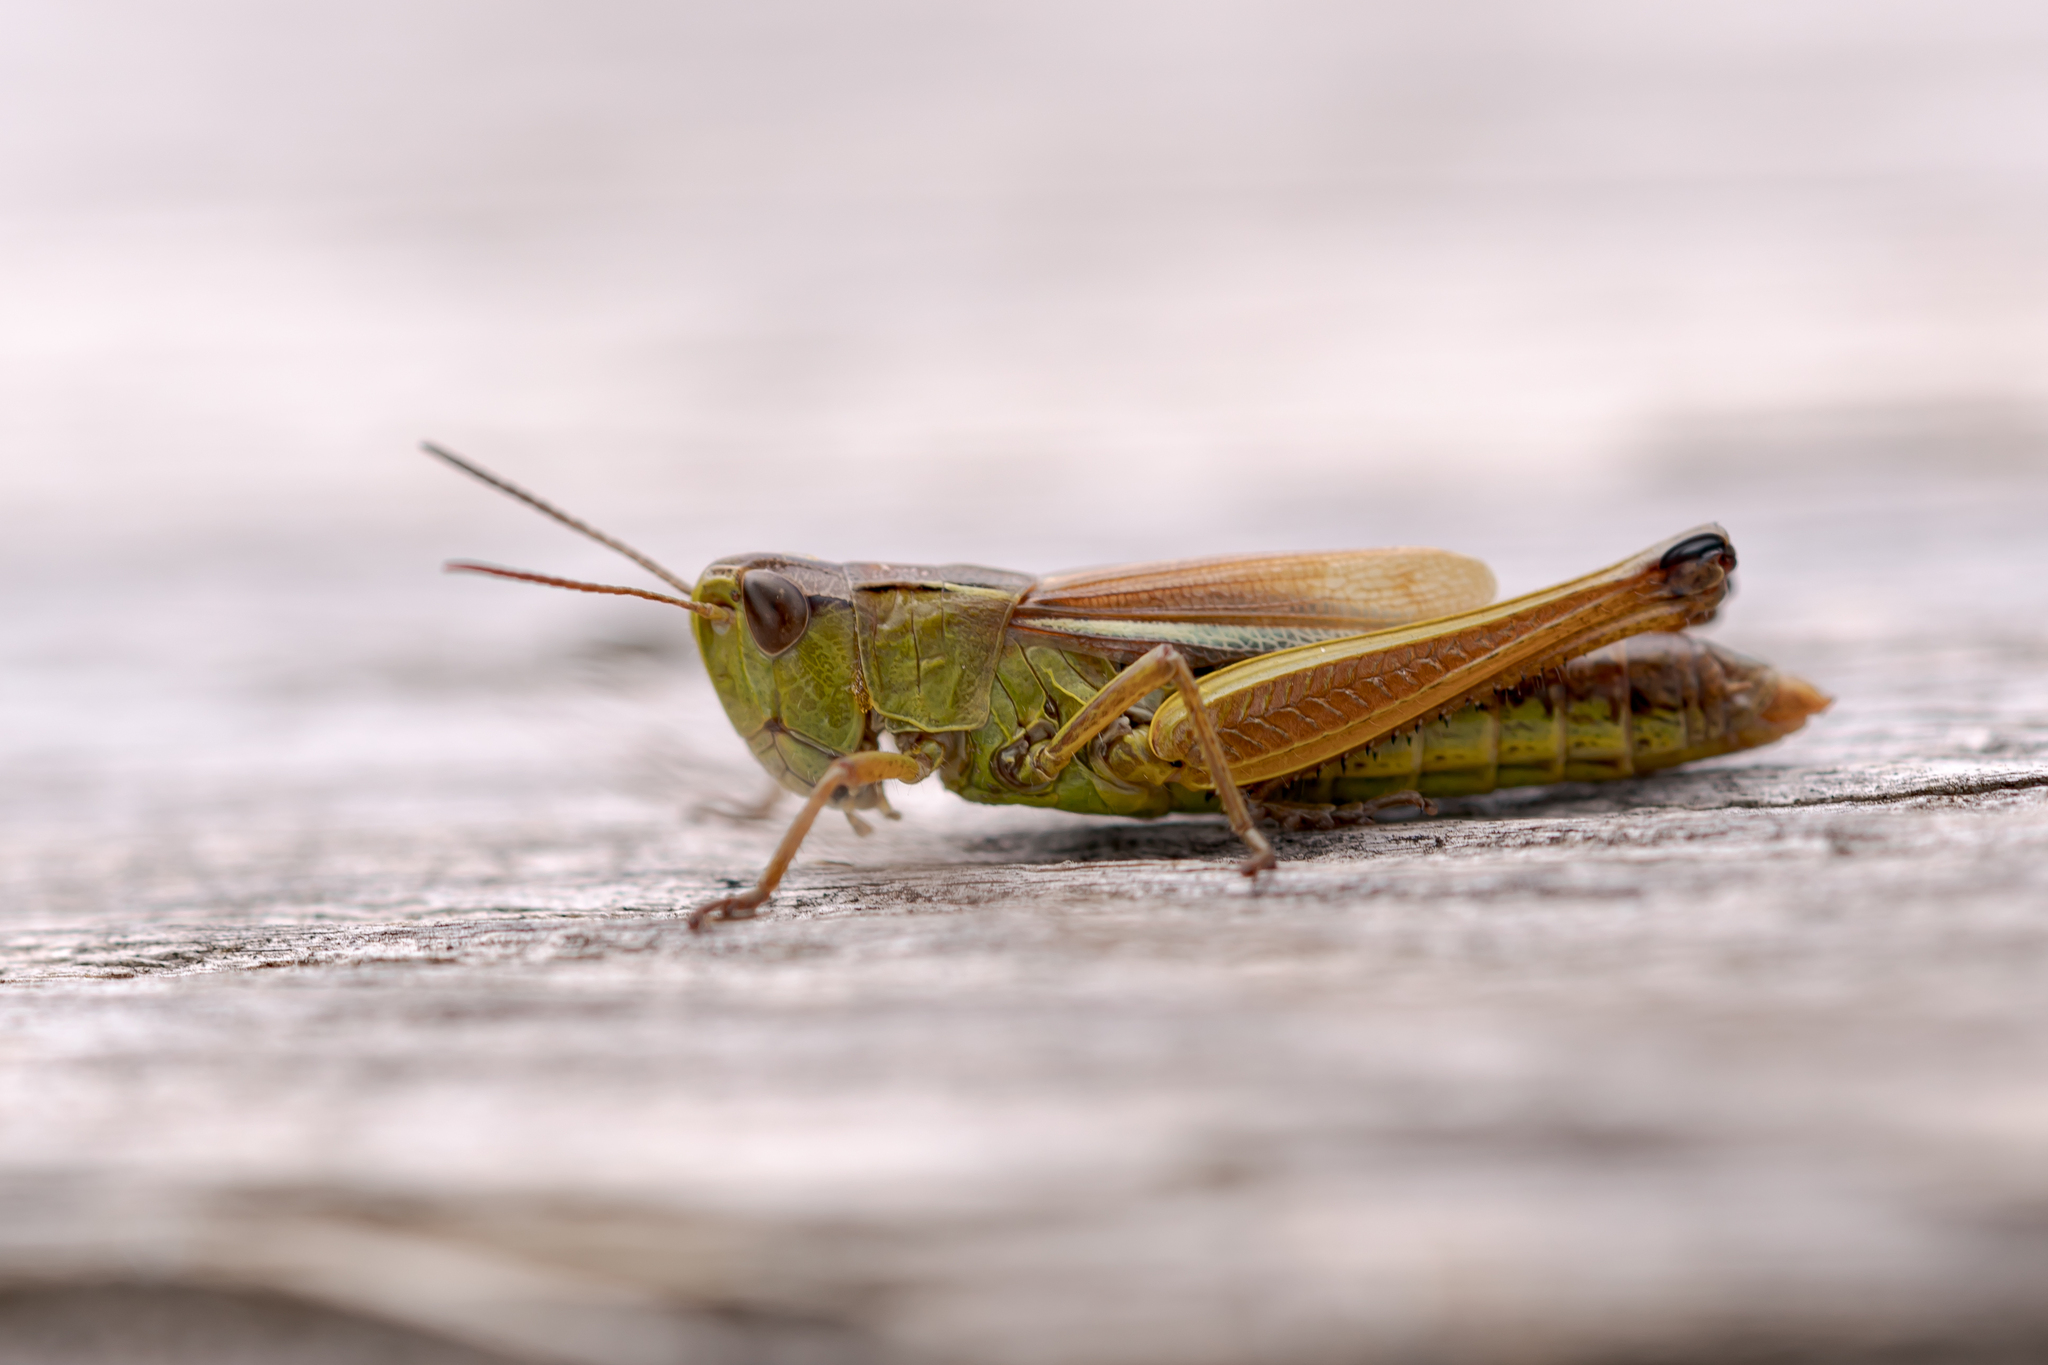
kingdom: Animalia
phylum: Arthropoda
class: Insecta
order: Orthoptera
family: Acrididae
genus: Pseudochorthippus
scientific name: Pseudochorthippus montanus
